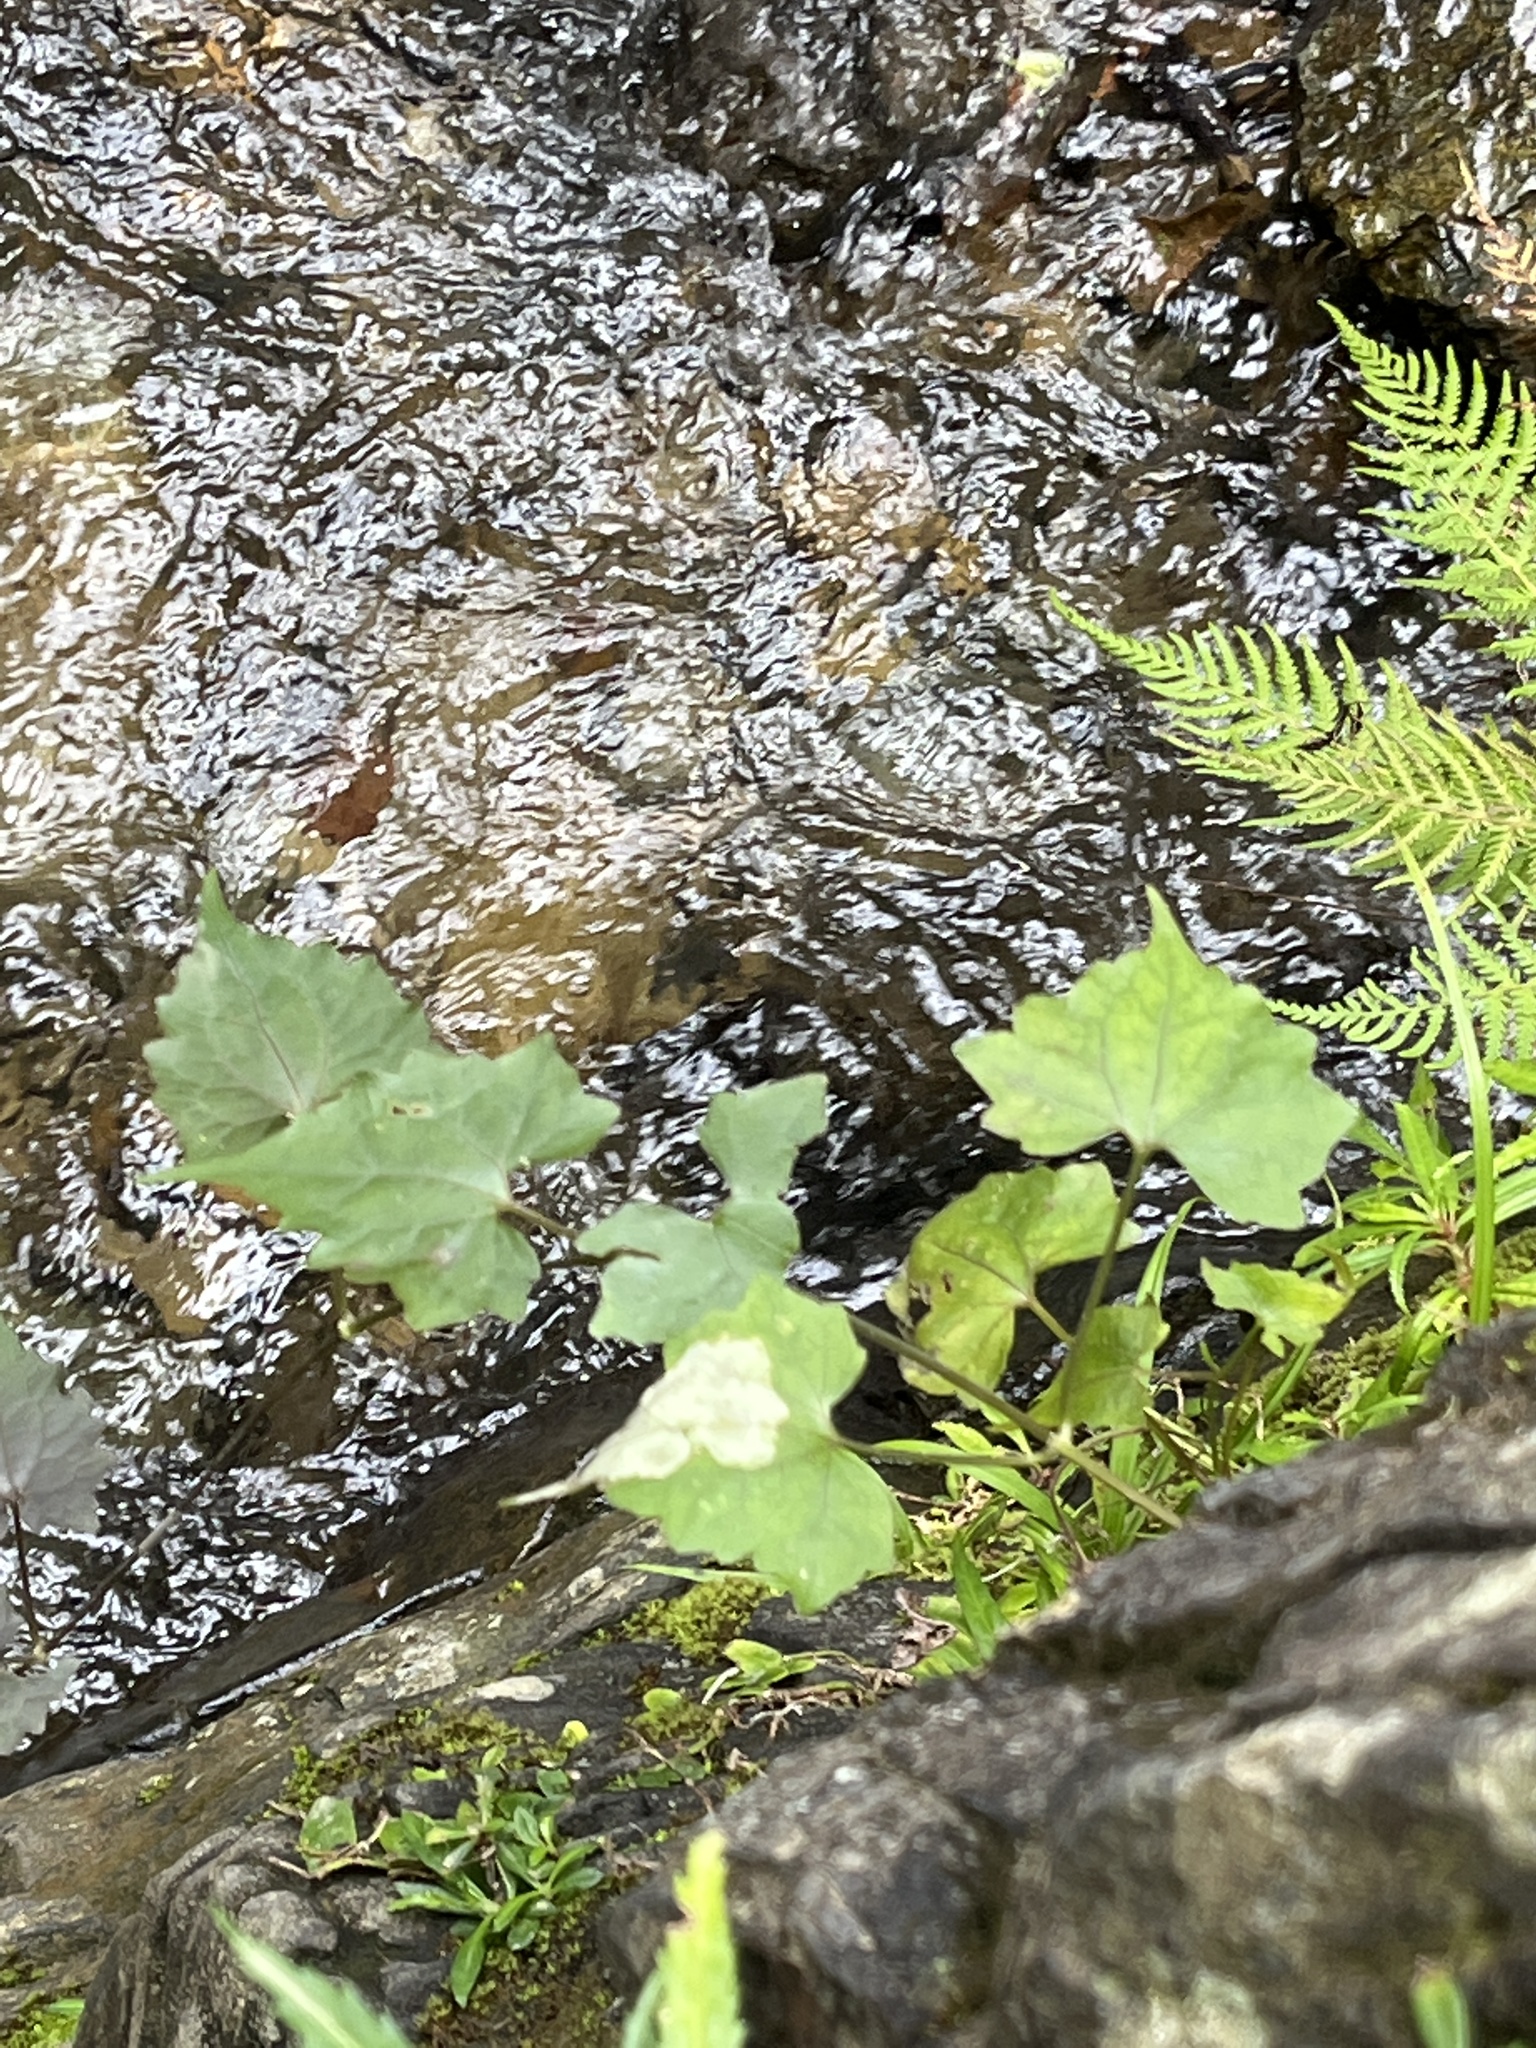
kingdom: Plantae
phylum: Tracheophyta
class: Magnoliopsida
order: Asterales
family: Asteraceae
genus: Mikania
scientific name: Mikania cordifolia
